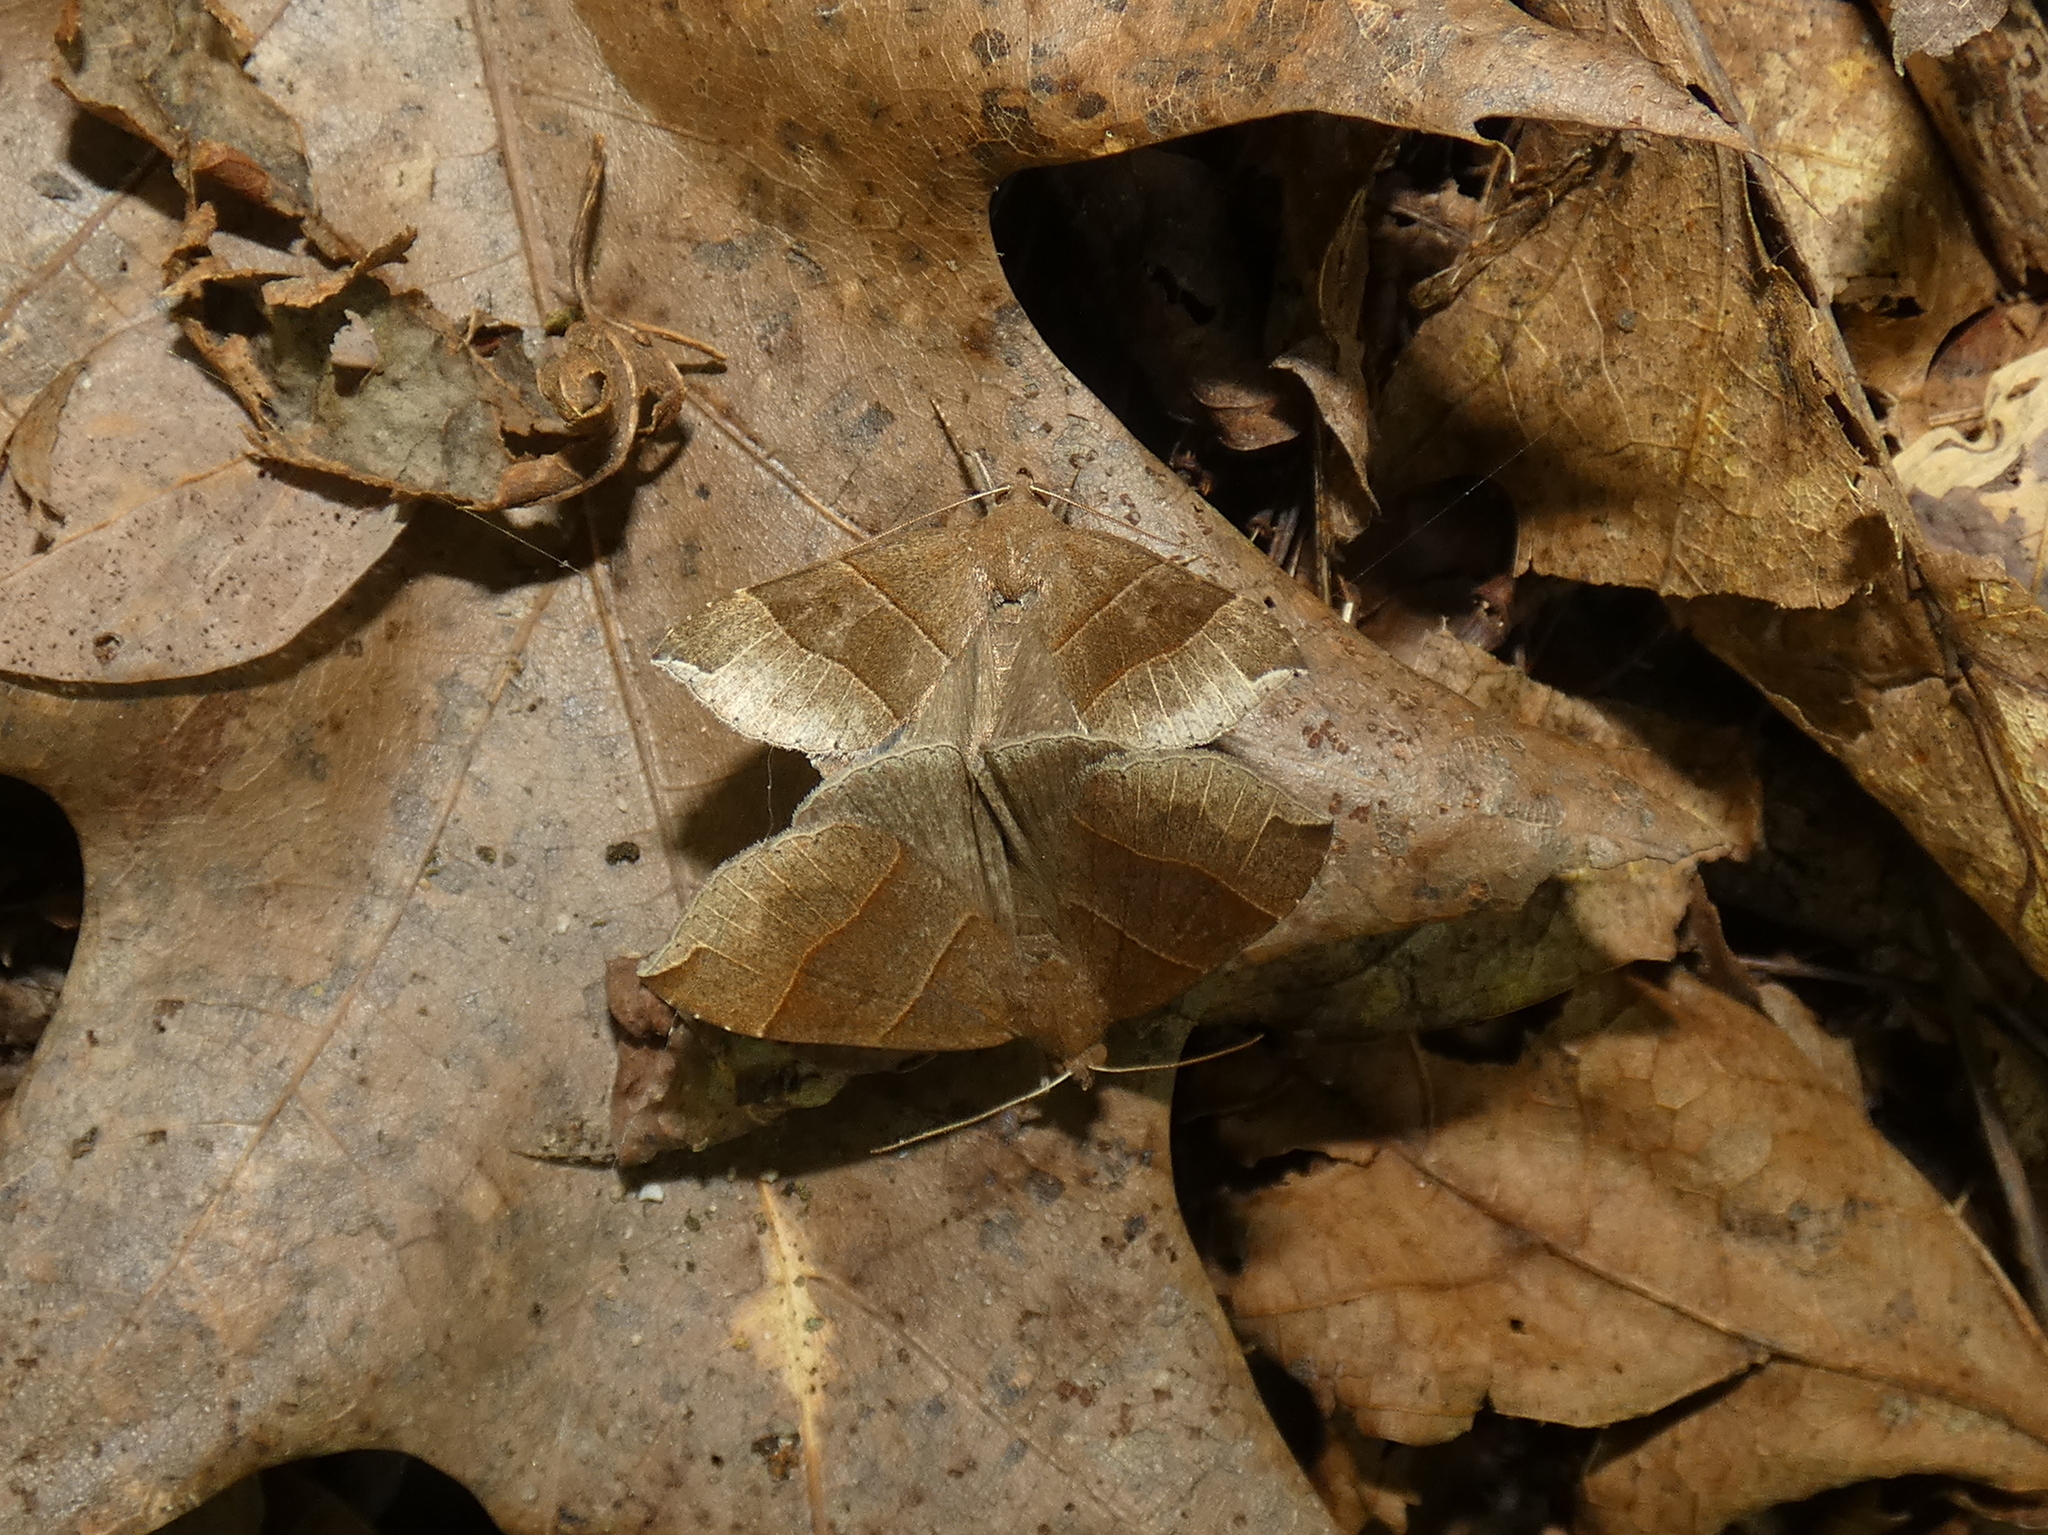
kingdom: Animalia
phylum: Arthropoda
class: Insecta
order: Lepidoptera
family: Erebidae
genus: Parallelia
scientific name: Parallelia bistriaris
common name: Maple looper moth
